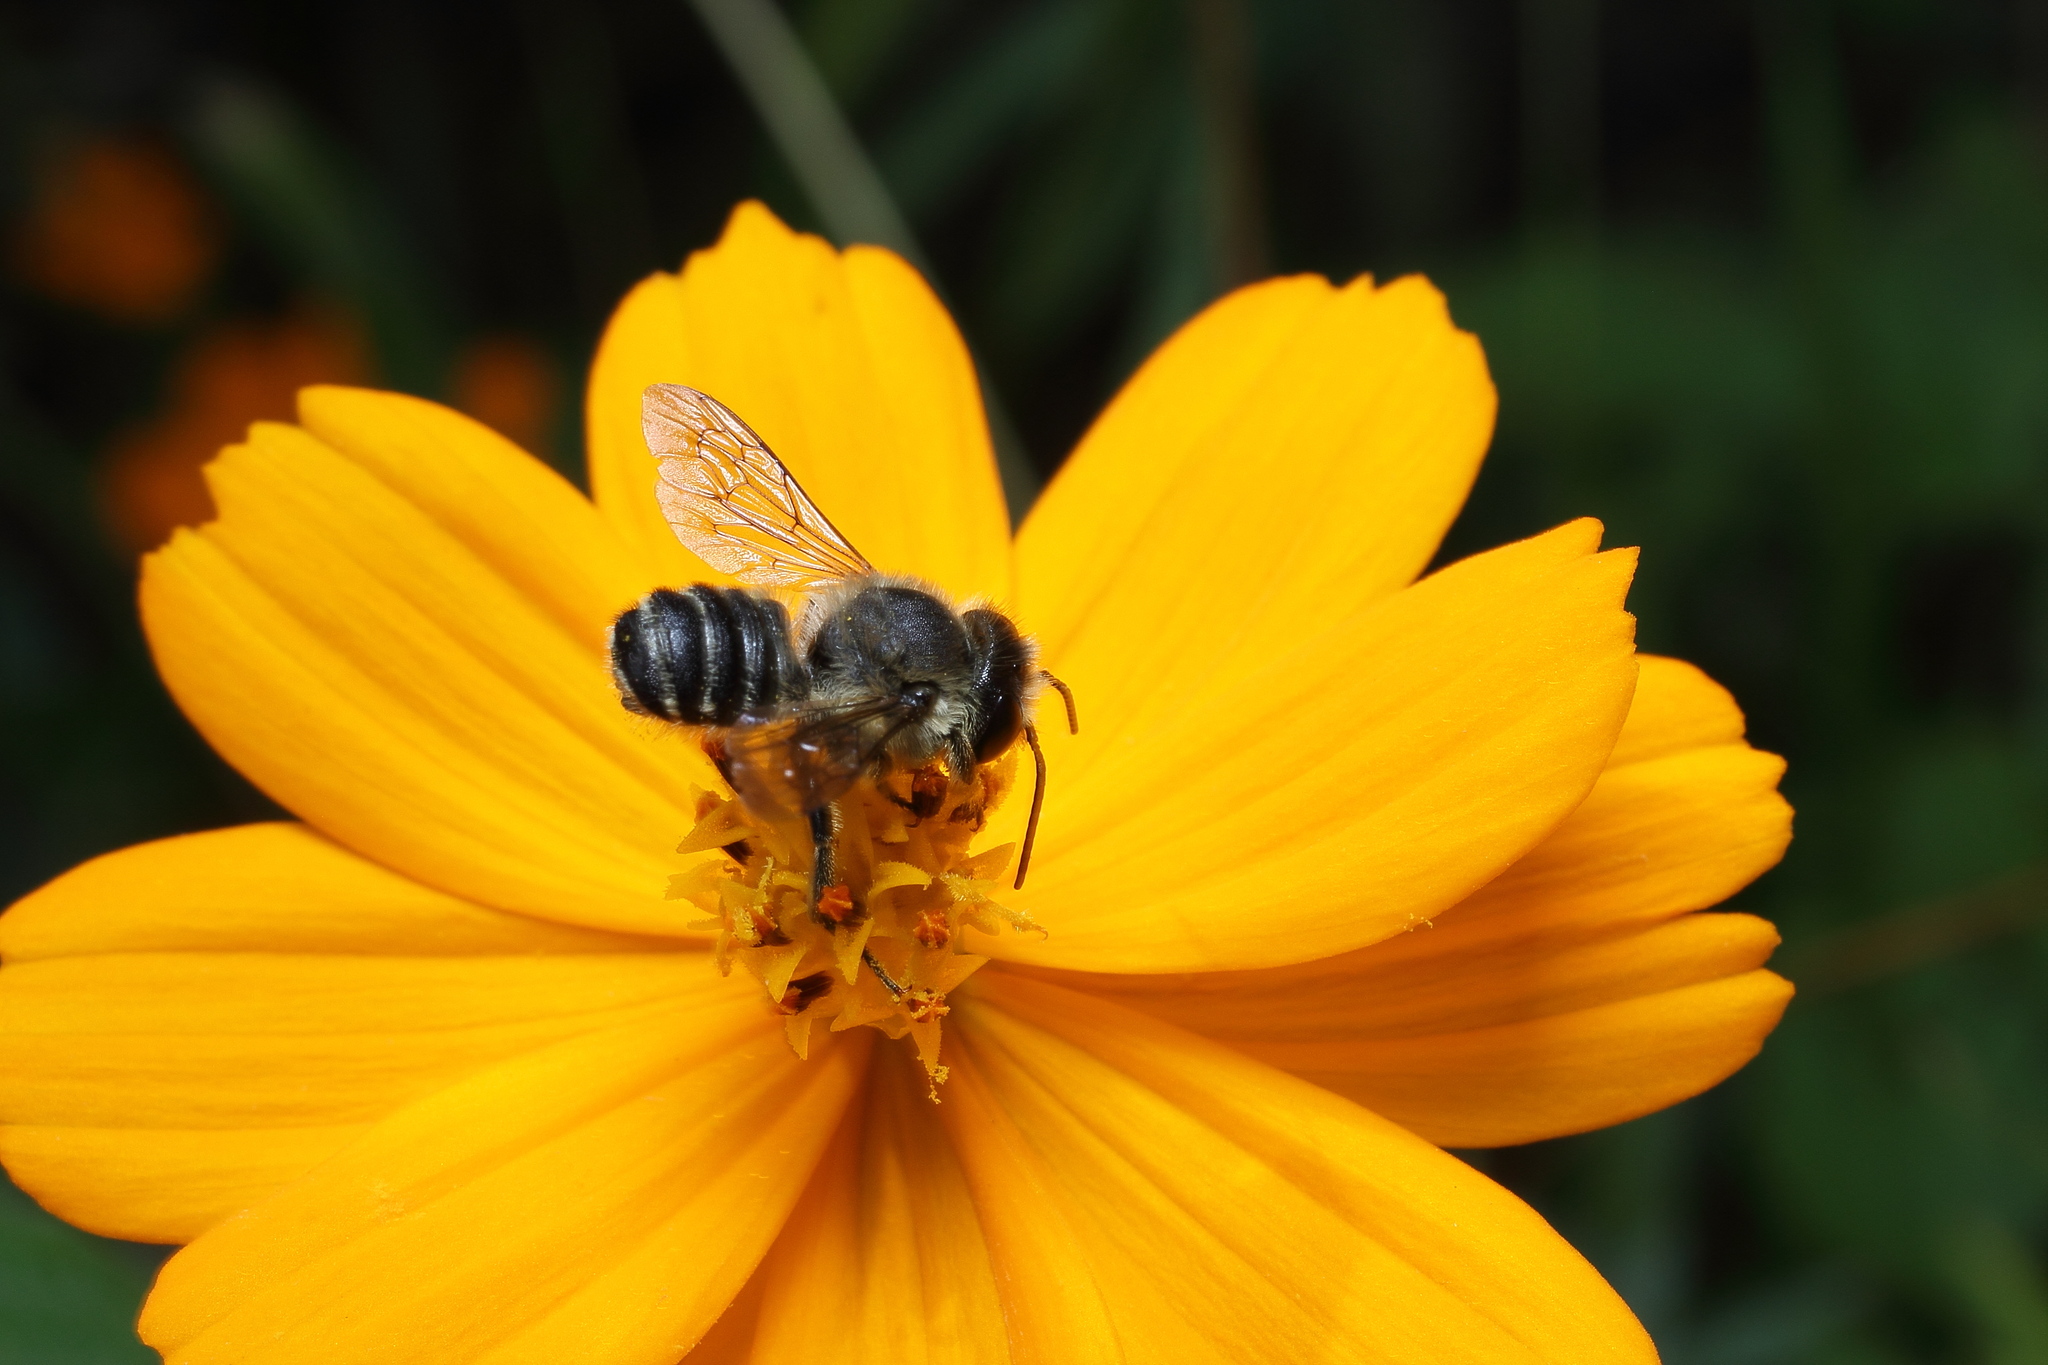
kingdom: Animalia
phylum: Arthropoda
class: Insecta
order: Hymenoptera
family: Megachilidae
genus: Megachile
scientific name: Megachile tsurugensis
